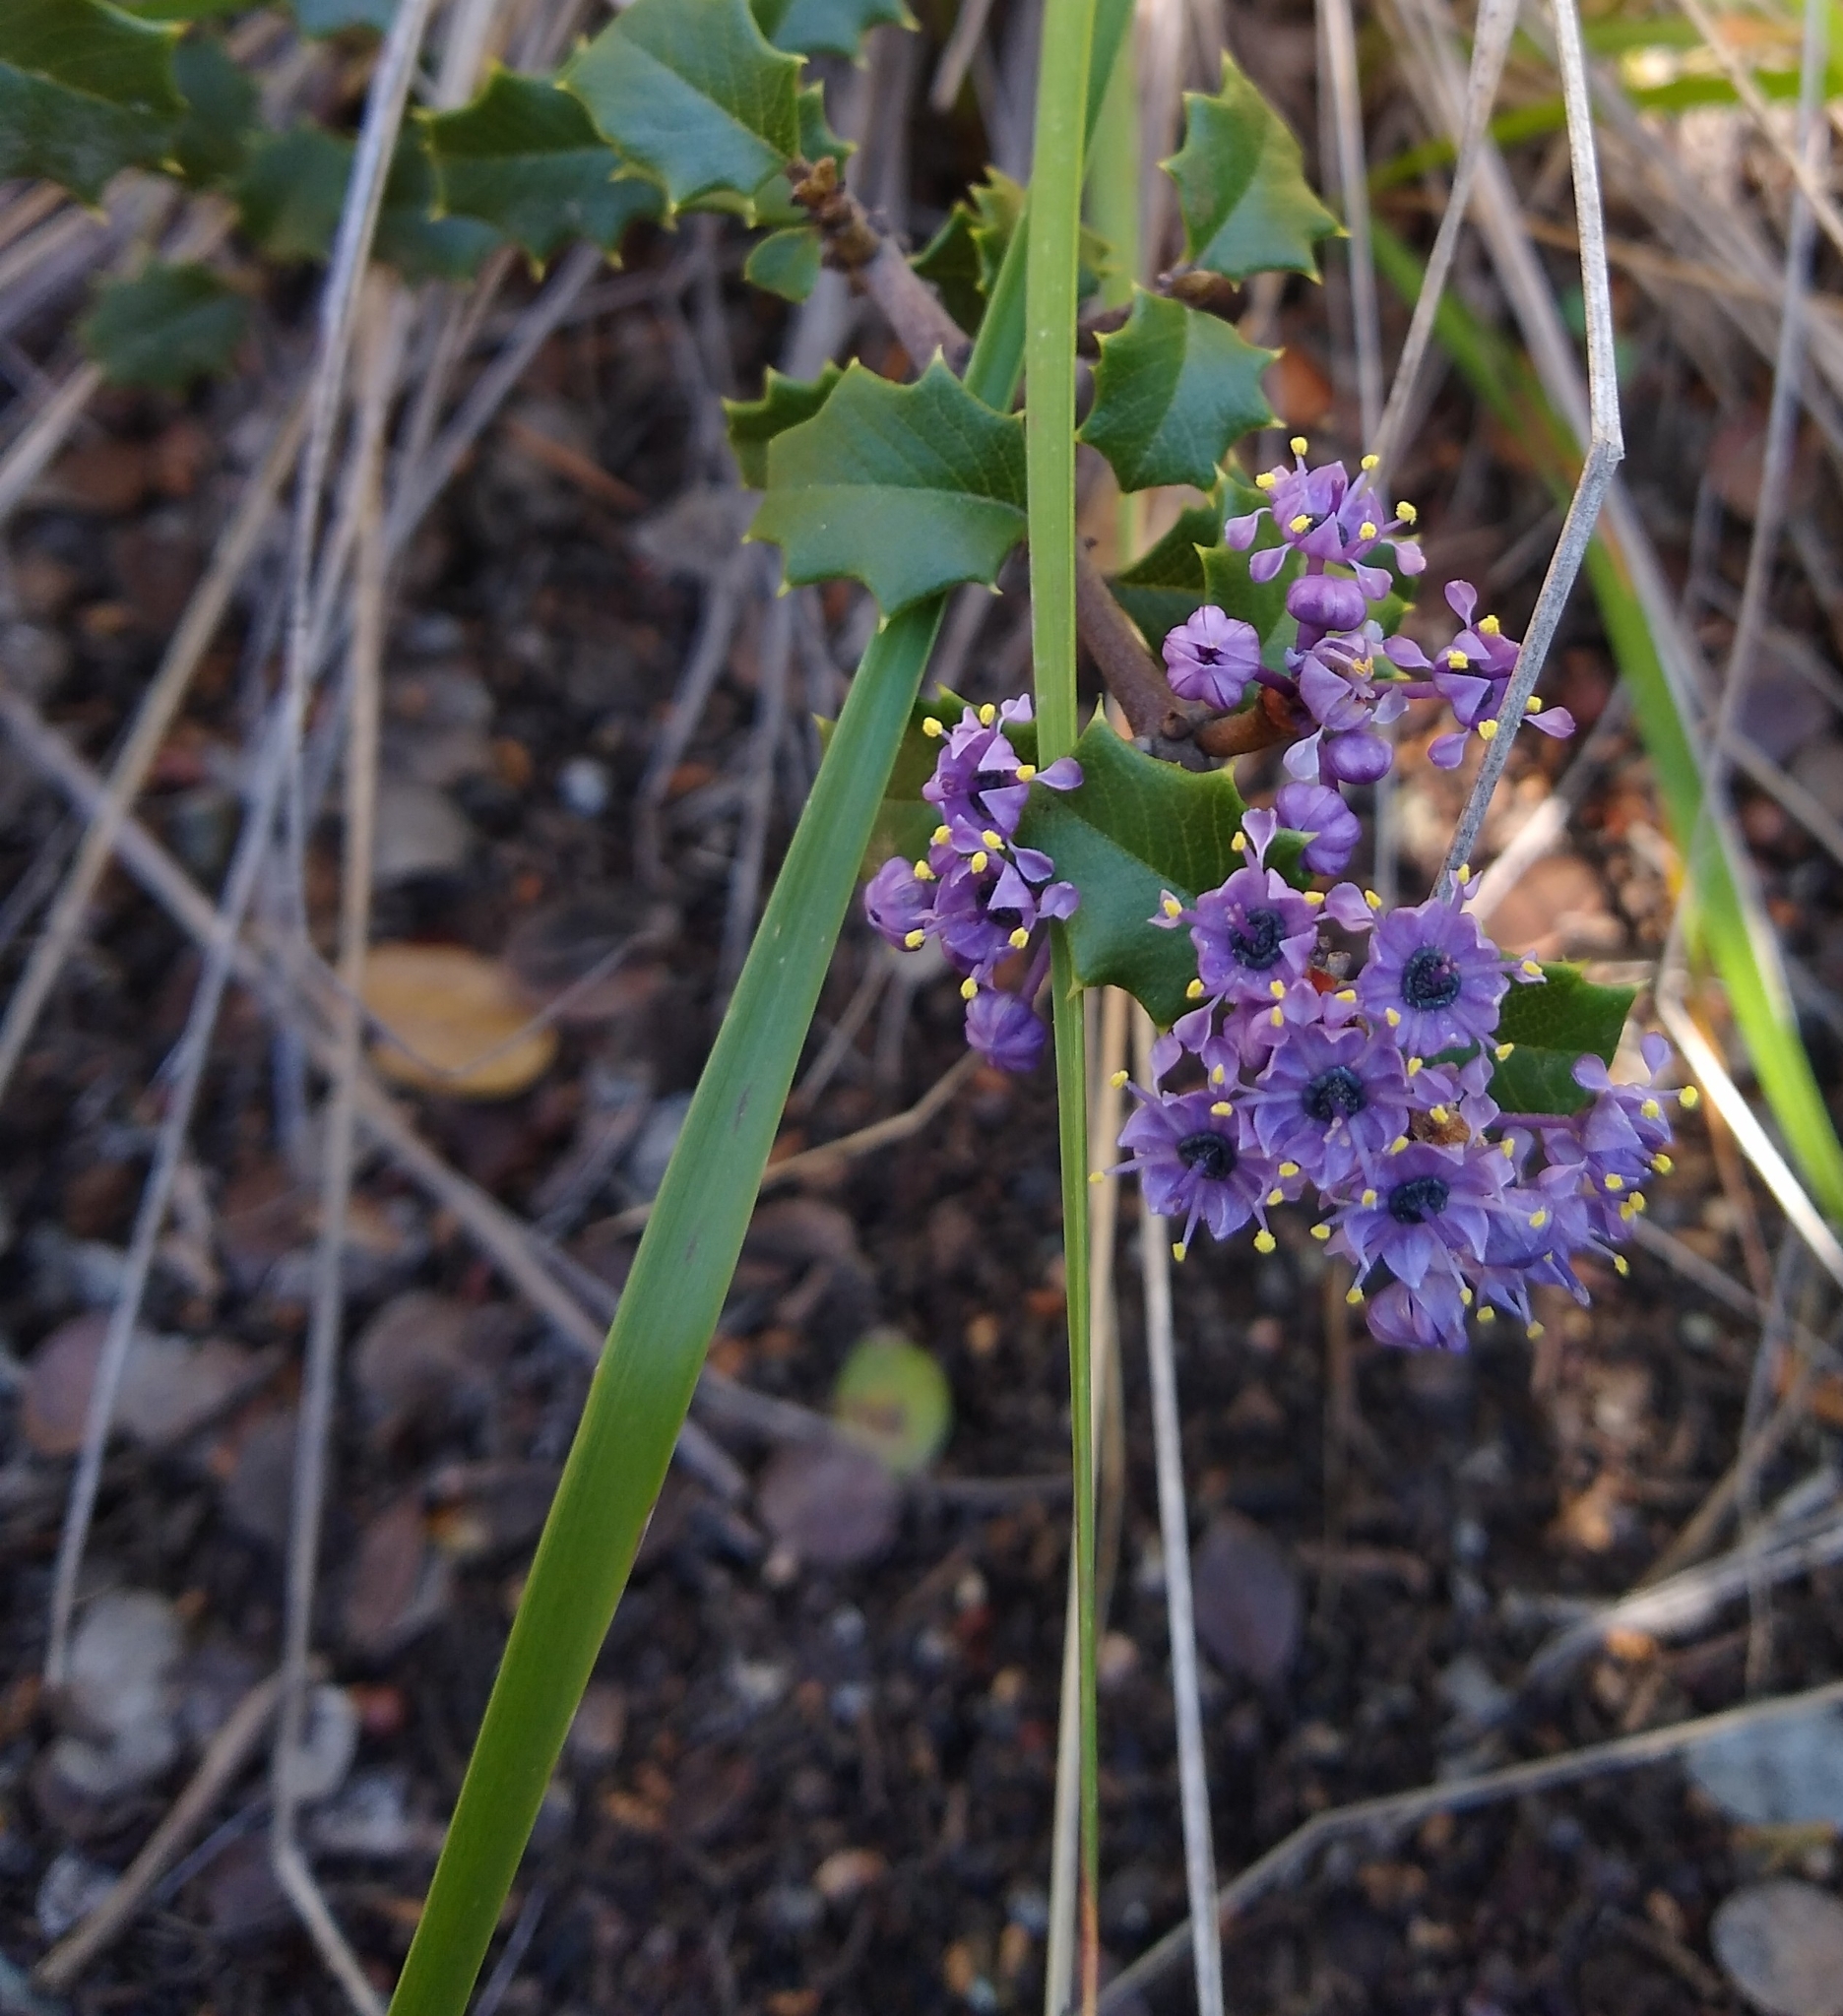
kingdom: Plantae
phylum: Tracheophyta
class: Magnoliopsida
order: Rosales
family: Rhamnaceae
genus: Ceanothus
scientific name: Ceanothus jepsonii
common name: Muskbrush
